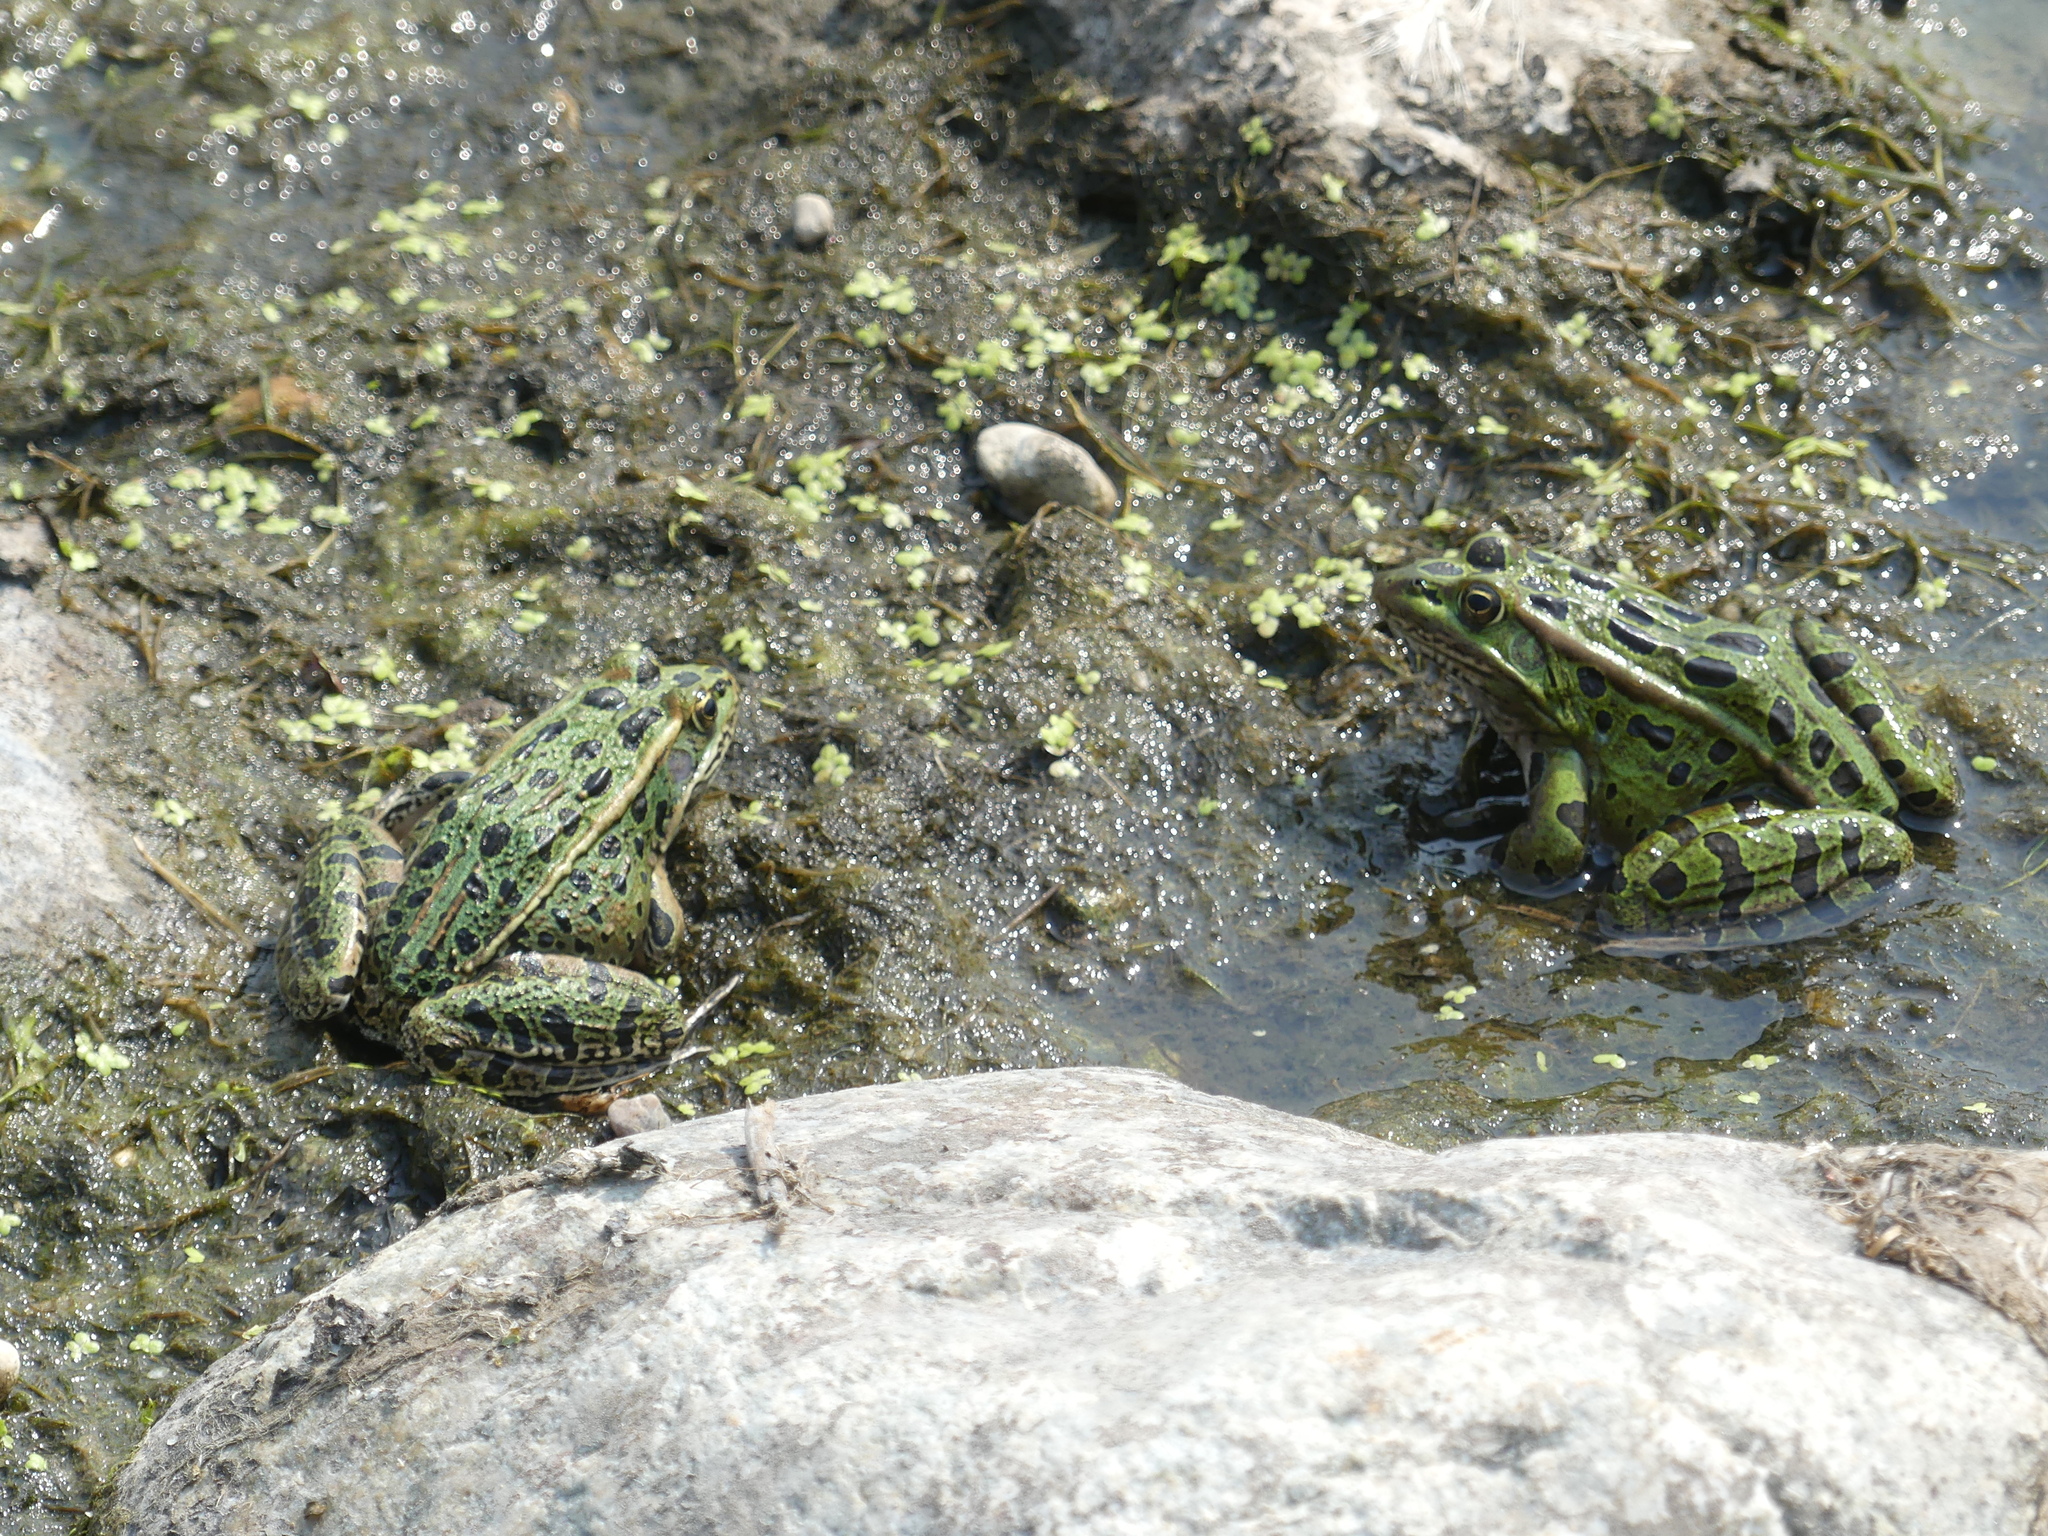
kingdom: Animalia
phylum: Chordata
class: Amphibia
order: Anura
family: Ranidae
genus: Lithobates
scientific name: Lithobates pipiens
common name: Northern leopard frog
